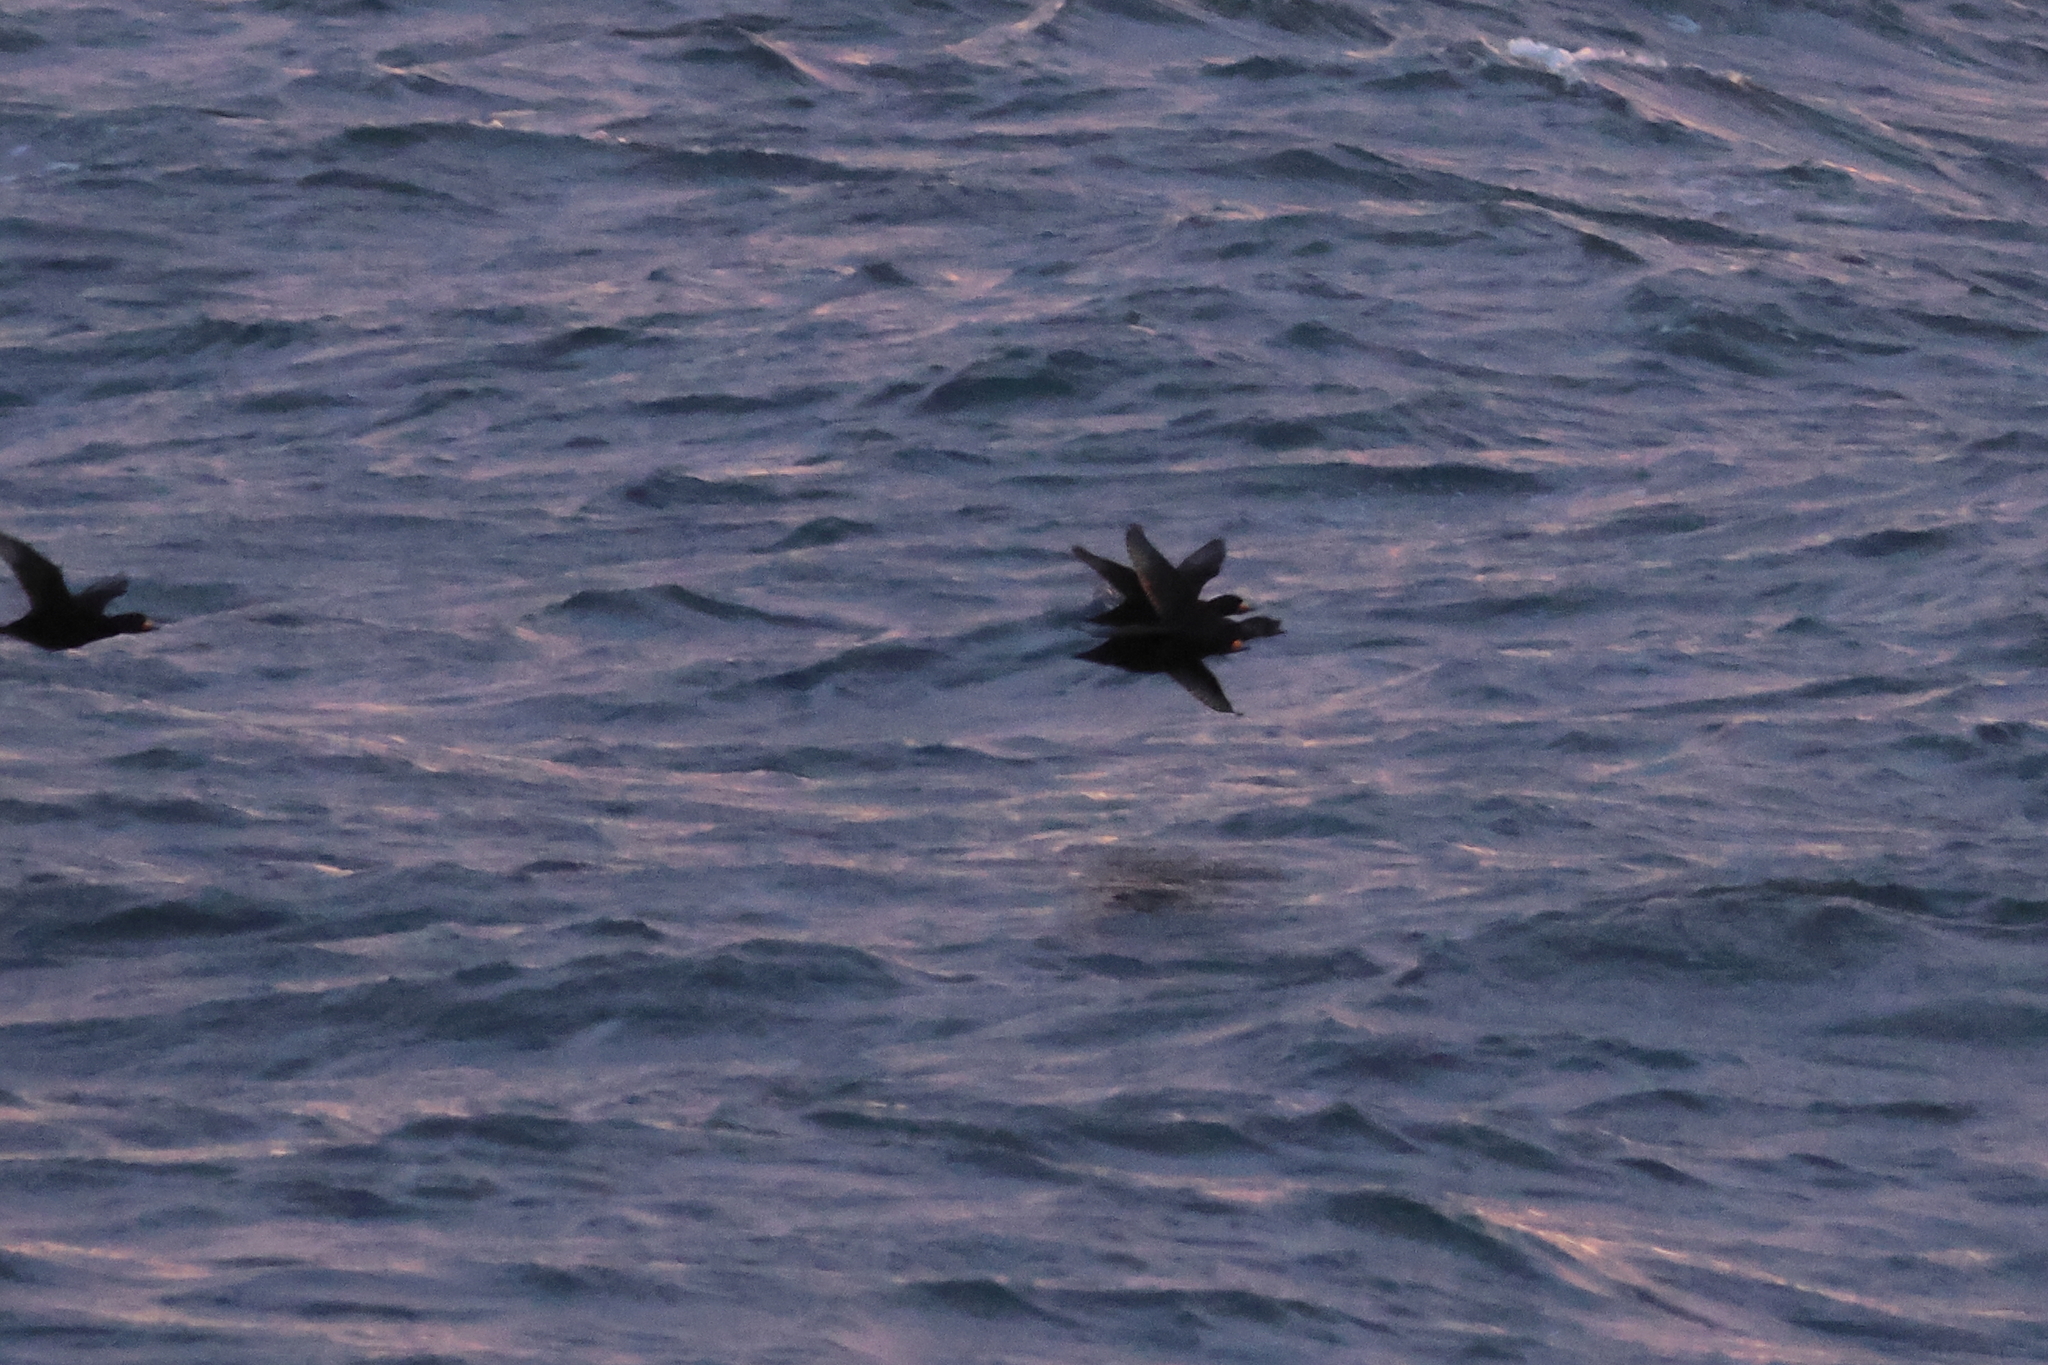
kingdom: Animalia
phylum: Chordata
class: Aves
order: Anseriformes
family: Anatidae
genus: Melanitta
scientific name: Melanitta americana
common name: Black scoter
